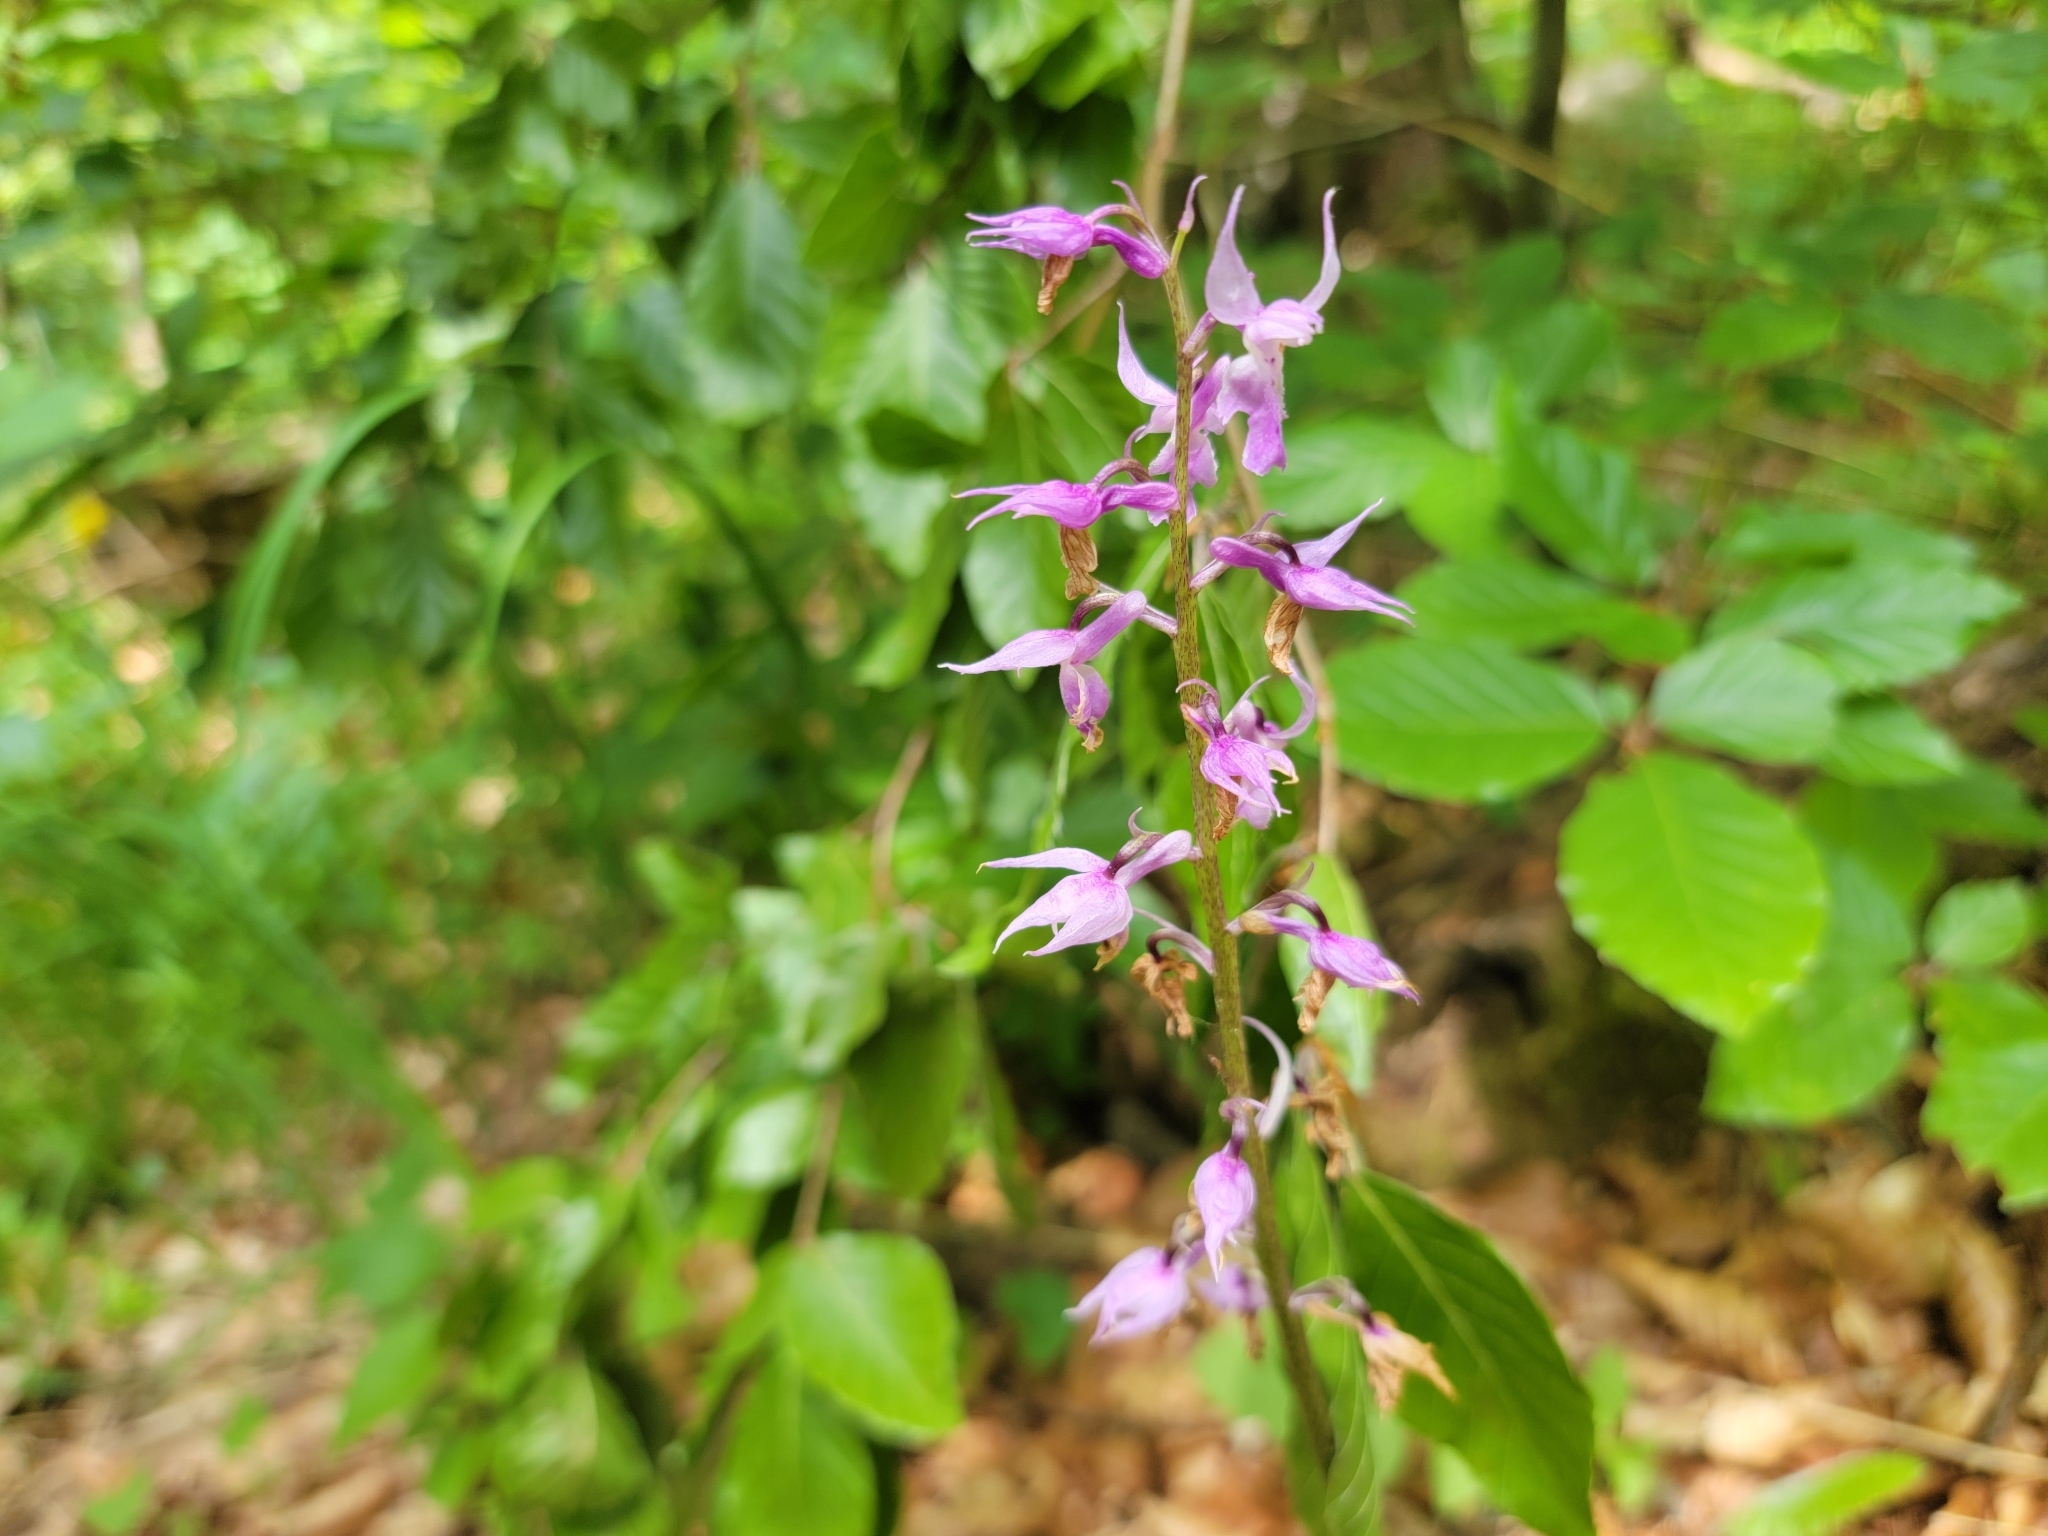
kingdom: Plantae
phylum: Tracheophyta
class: Liliopsida
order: Asparagales
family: Orchidaceae
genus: Orchis
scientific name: Orchis mascula
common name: Early-purple orchid
